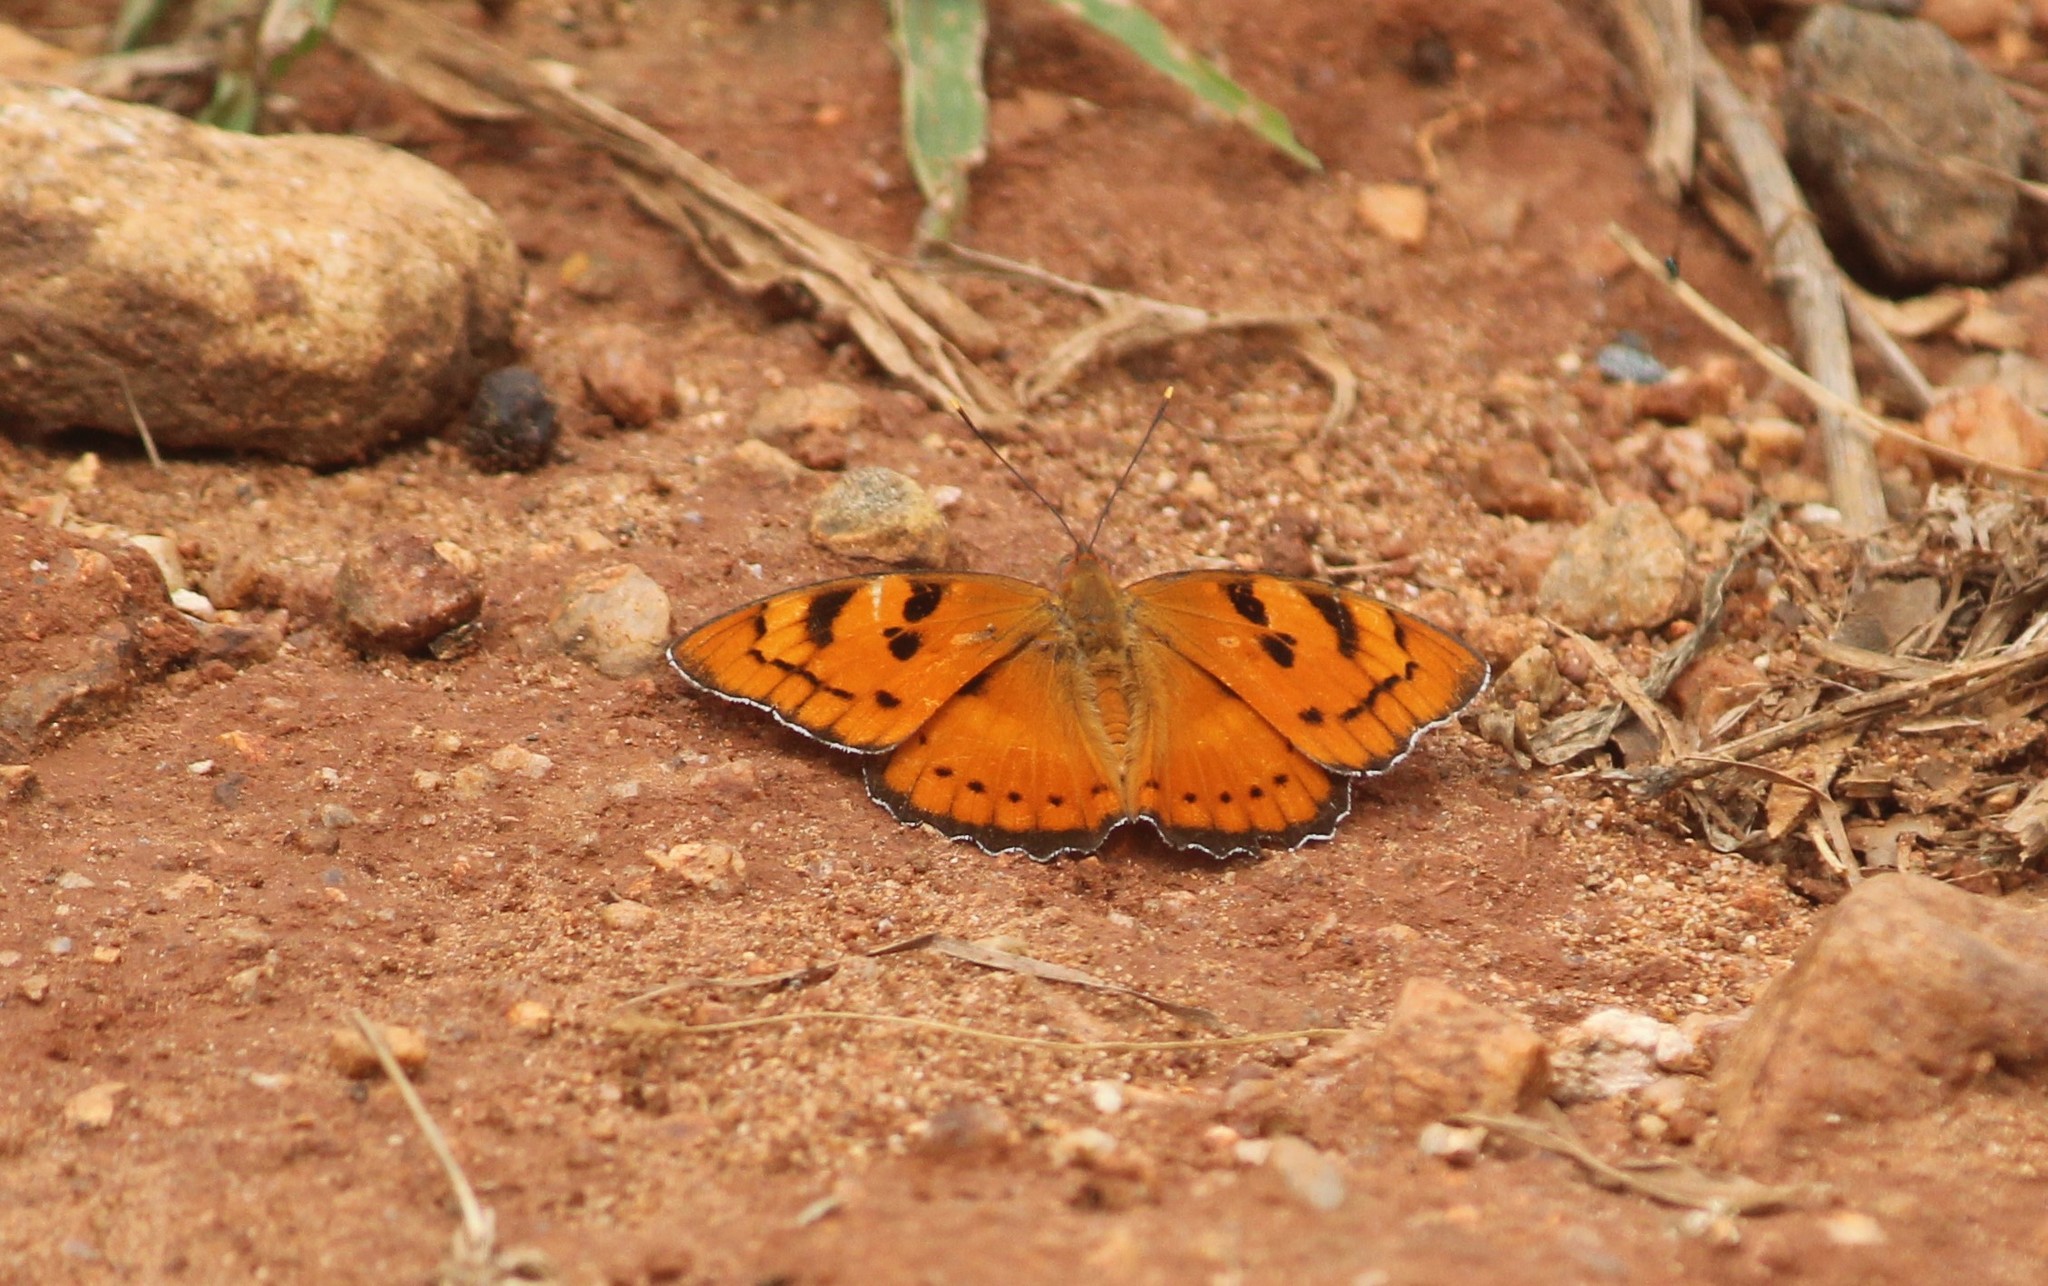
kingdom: Animalia
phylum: Arthropoda
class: Insecta
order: Lepidoptera
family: Nymphalidae
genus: Euthalia
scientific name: Euthalia nais
